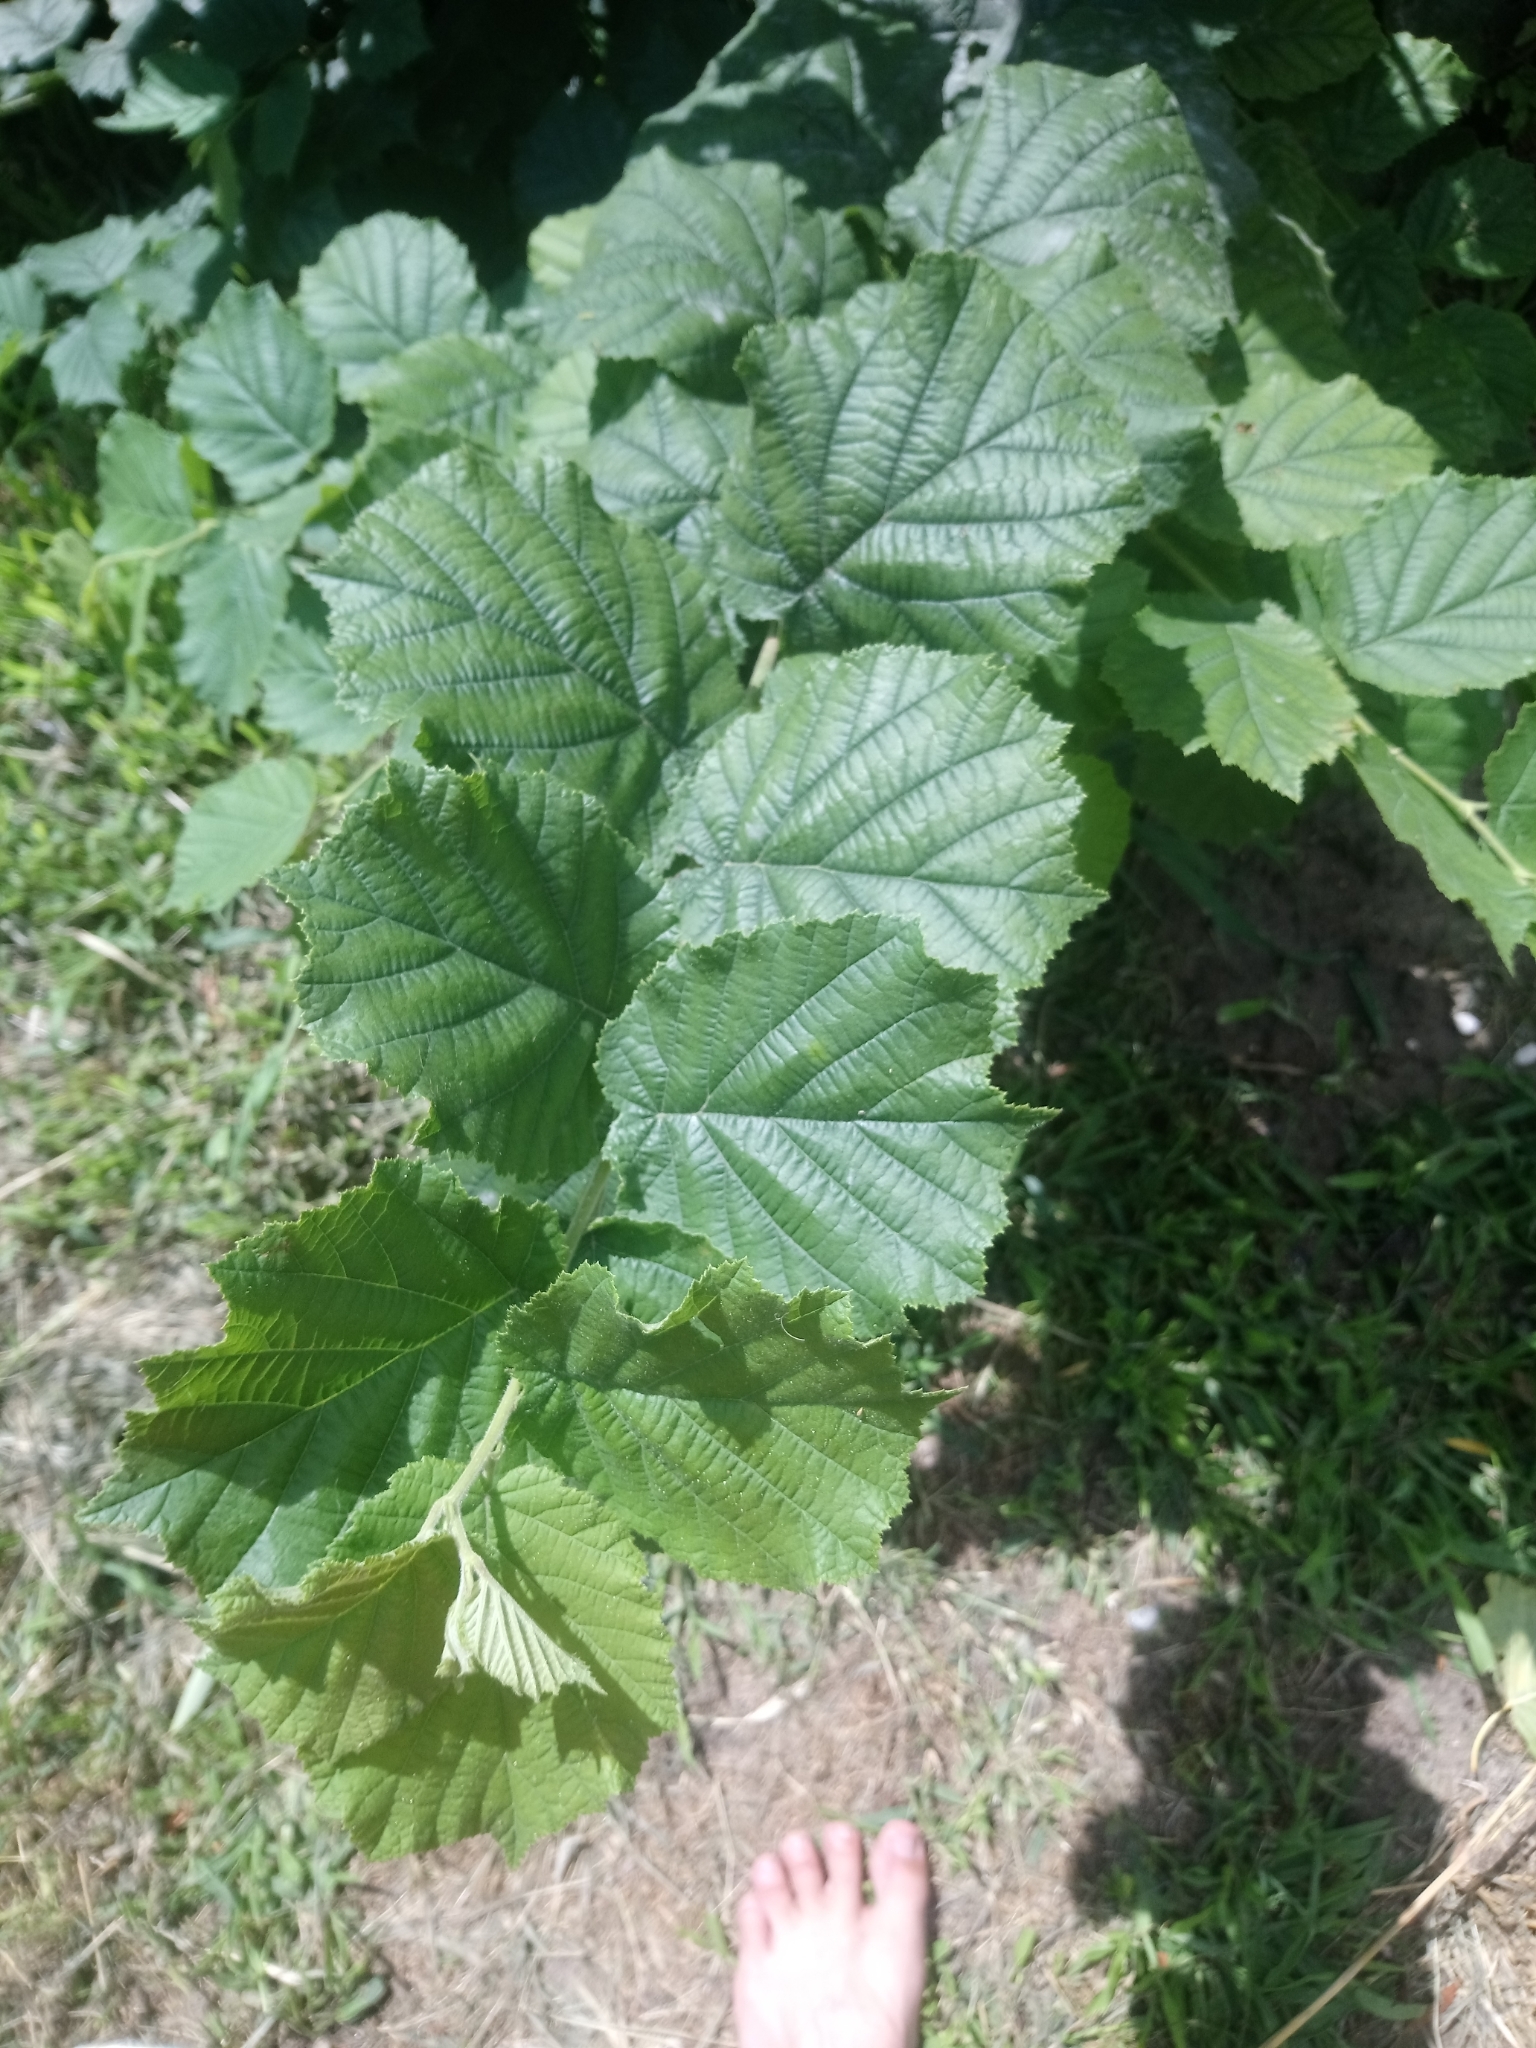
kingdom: Plantae
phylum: Tracheophyta
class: Magnoliopsida
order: Fagales
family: Betulaceae
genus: Corylus
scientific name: Corylus avellana
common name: European hazel
